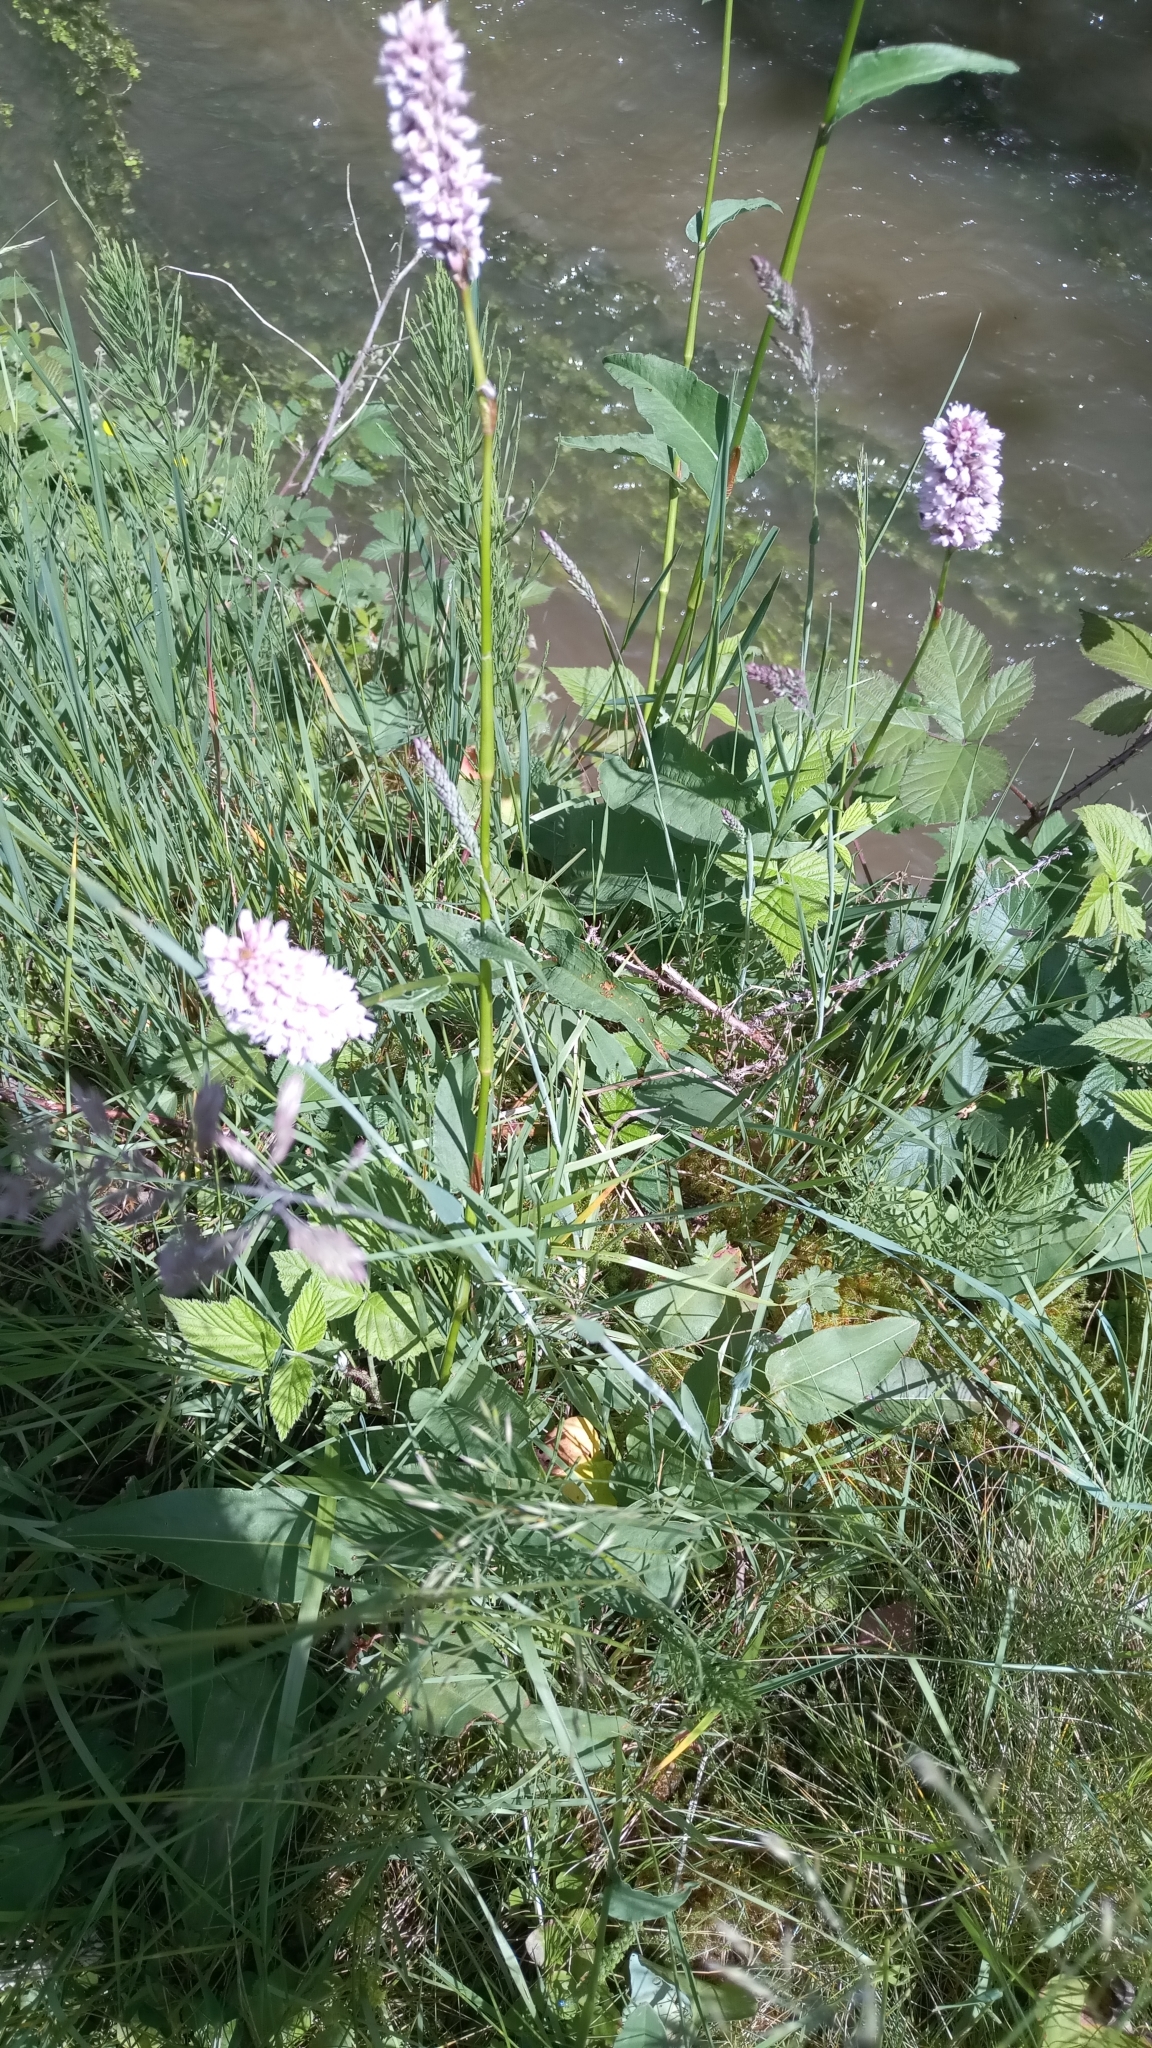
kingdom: Plantae
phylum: Tracheophyta
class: Magnoliopsida
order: Caryophyllales
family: Polygonaceae
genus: Bistorta
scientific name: Bistorta officinalis
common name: Common bistort
